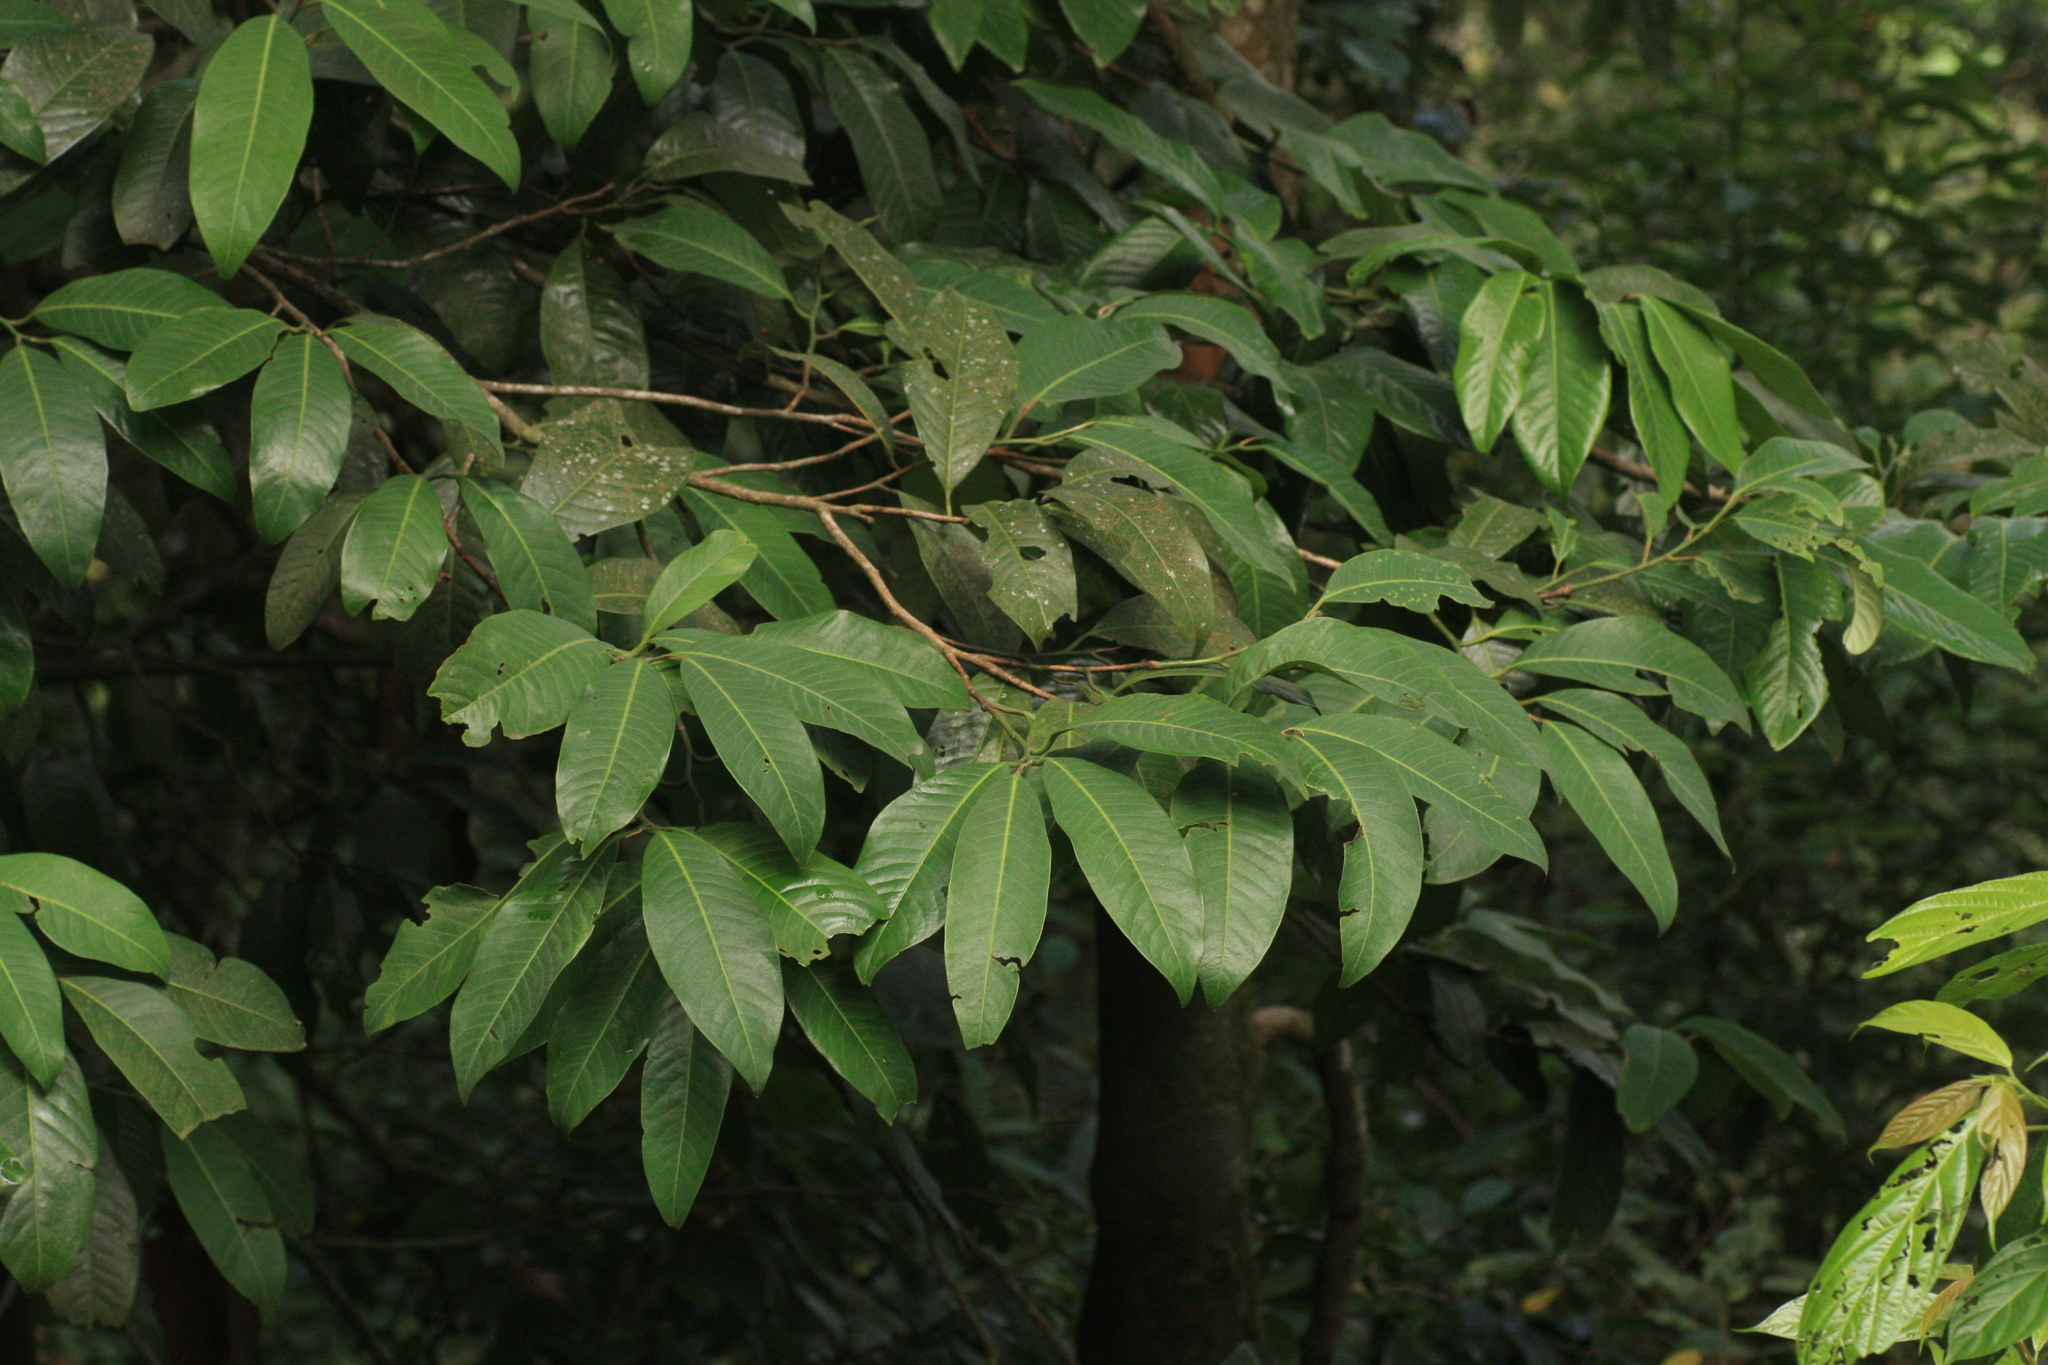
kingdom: Plantae
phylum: Tracheophyta
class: Magnoliopsida
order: Magnoliales
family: Myristicaceae
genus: Myristica
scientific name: Myristica beddomei
